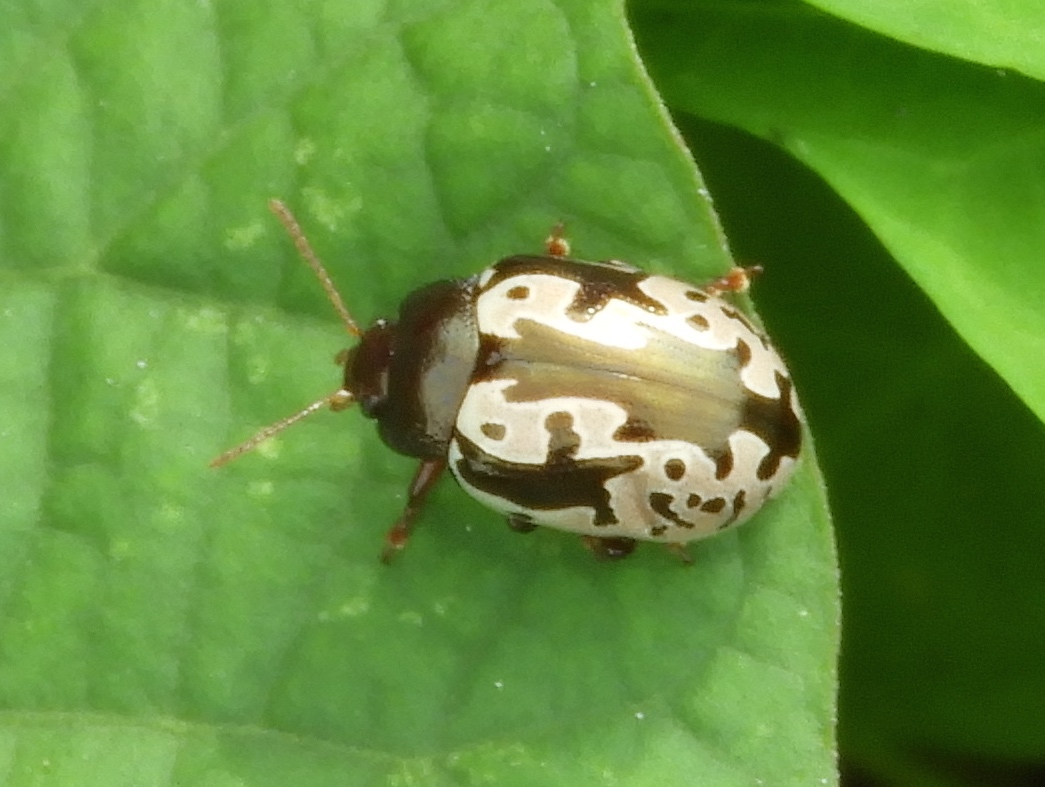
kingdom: Animalia
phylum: Arthropoda
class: Insecta
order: Coleoptera
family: Chrysomelidae
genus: Calligrapha
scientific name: Calligrapha intermedia
